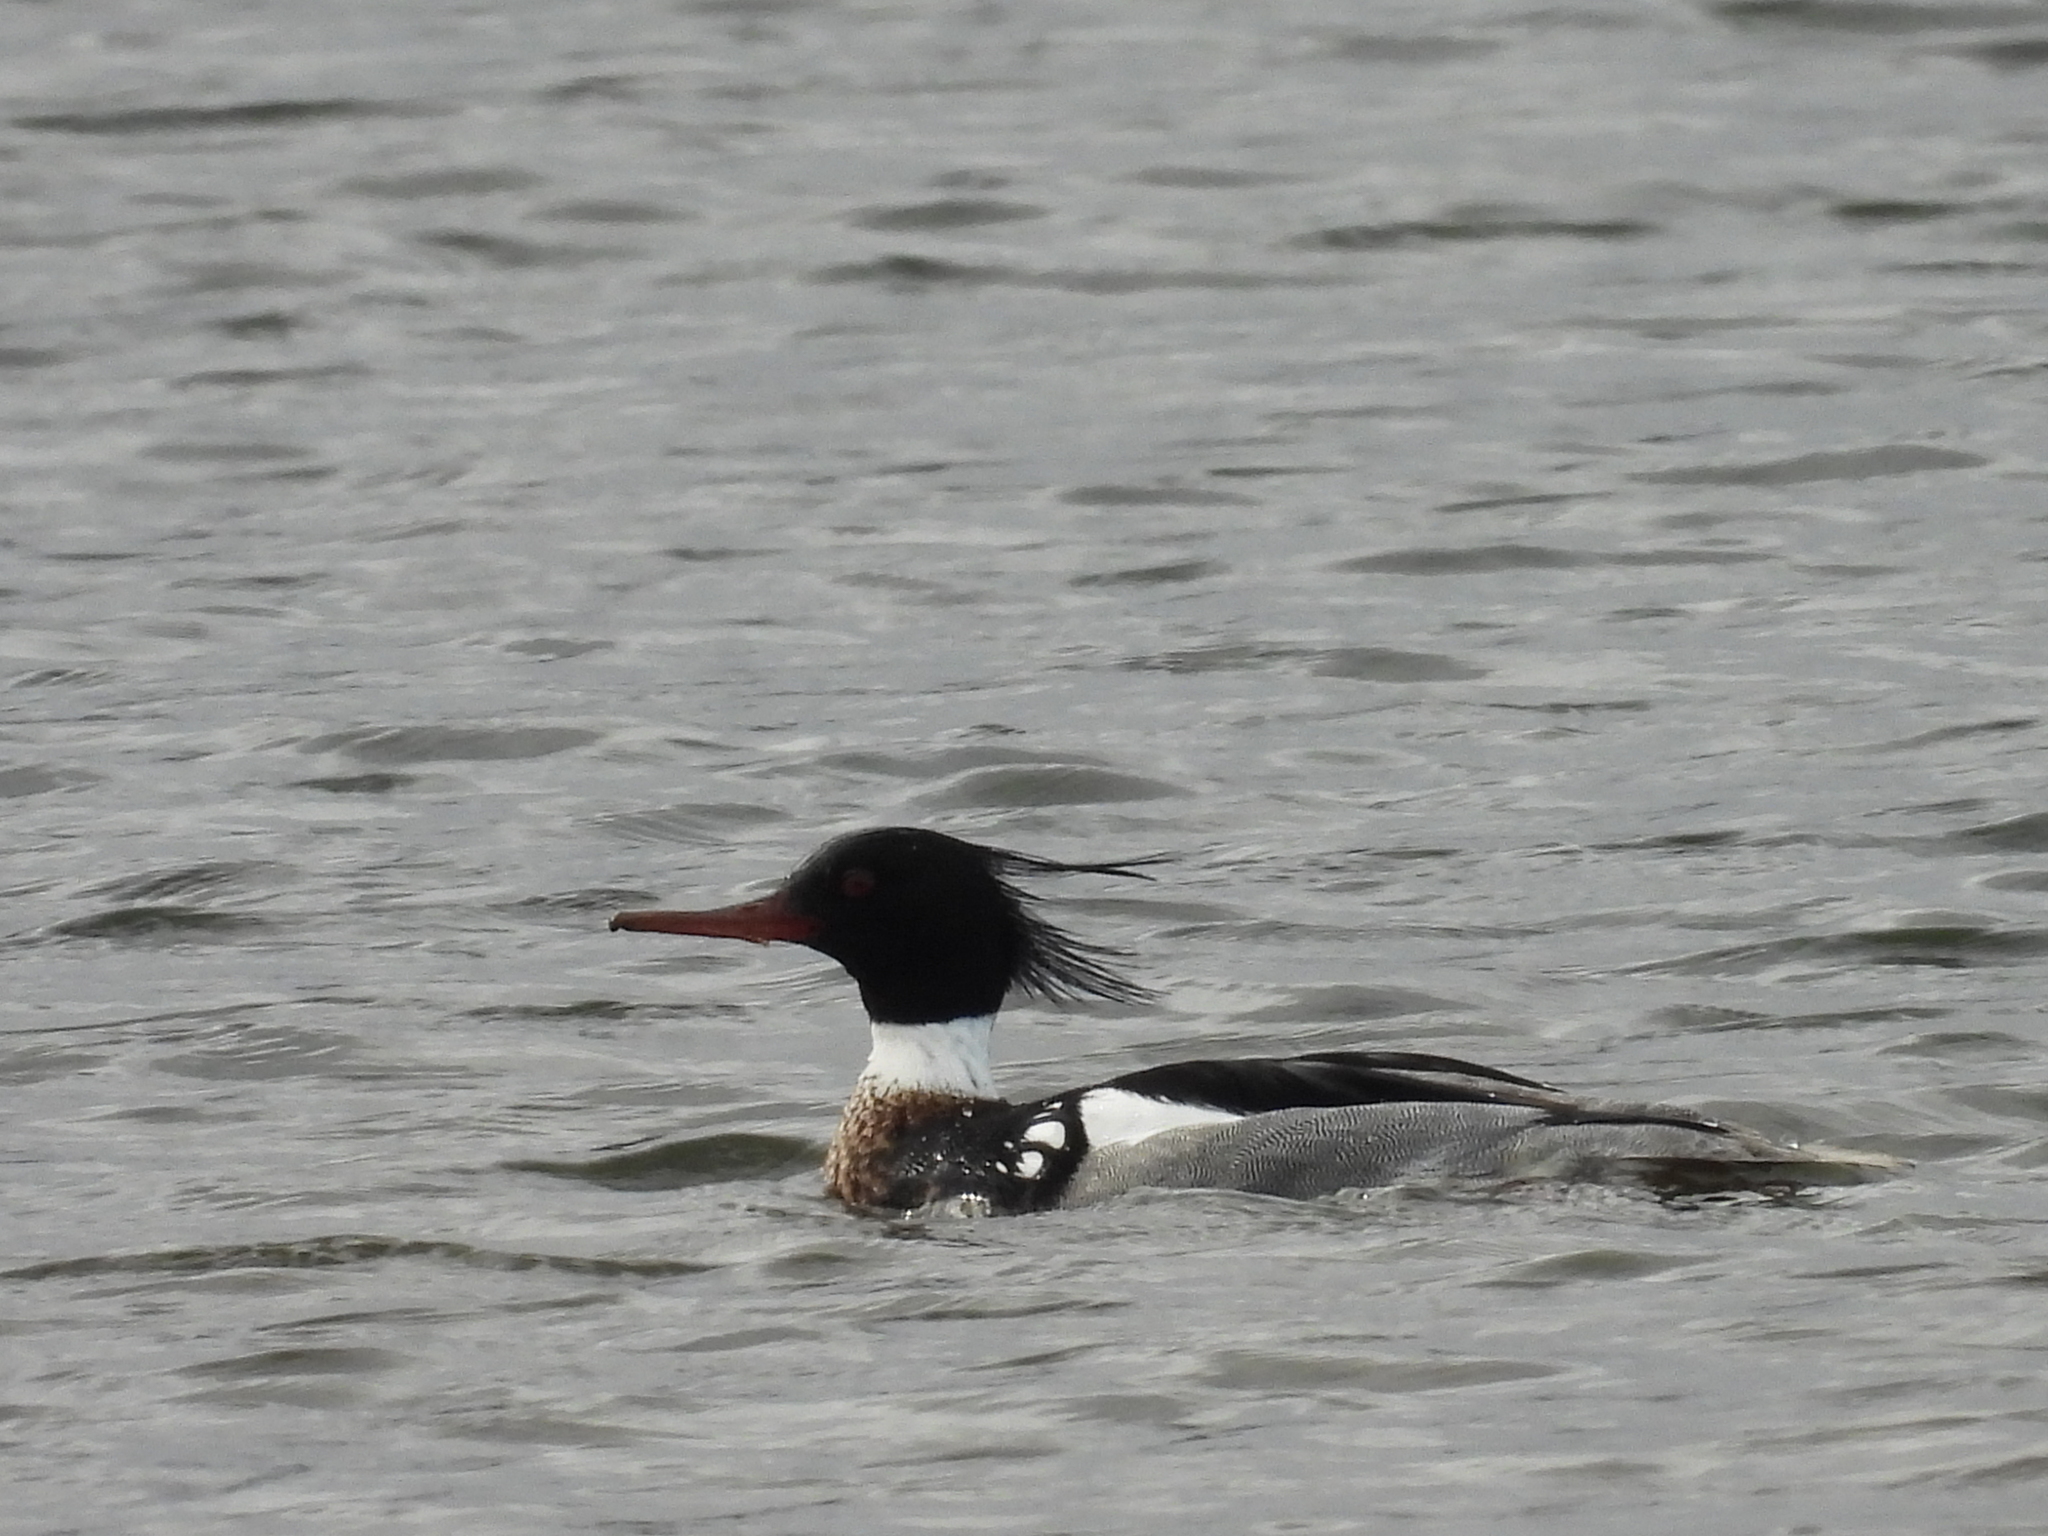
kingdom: Animalia
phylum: Chordata
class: Aves
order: Anseriformes
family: Anatidae
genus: Mergus
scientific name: Mergus serrator
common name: Red-breasted merganser
